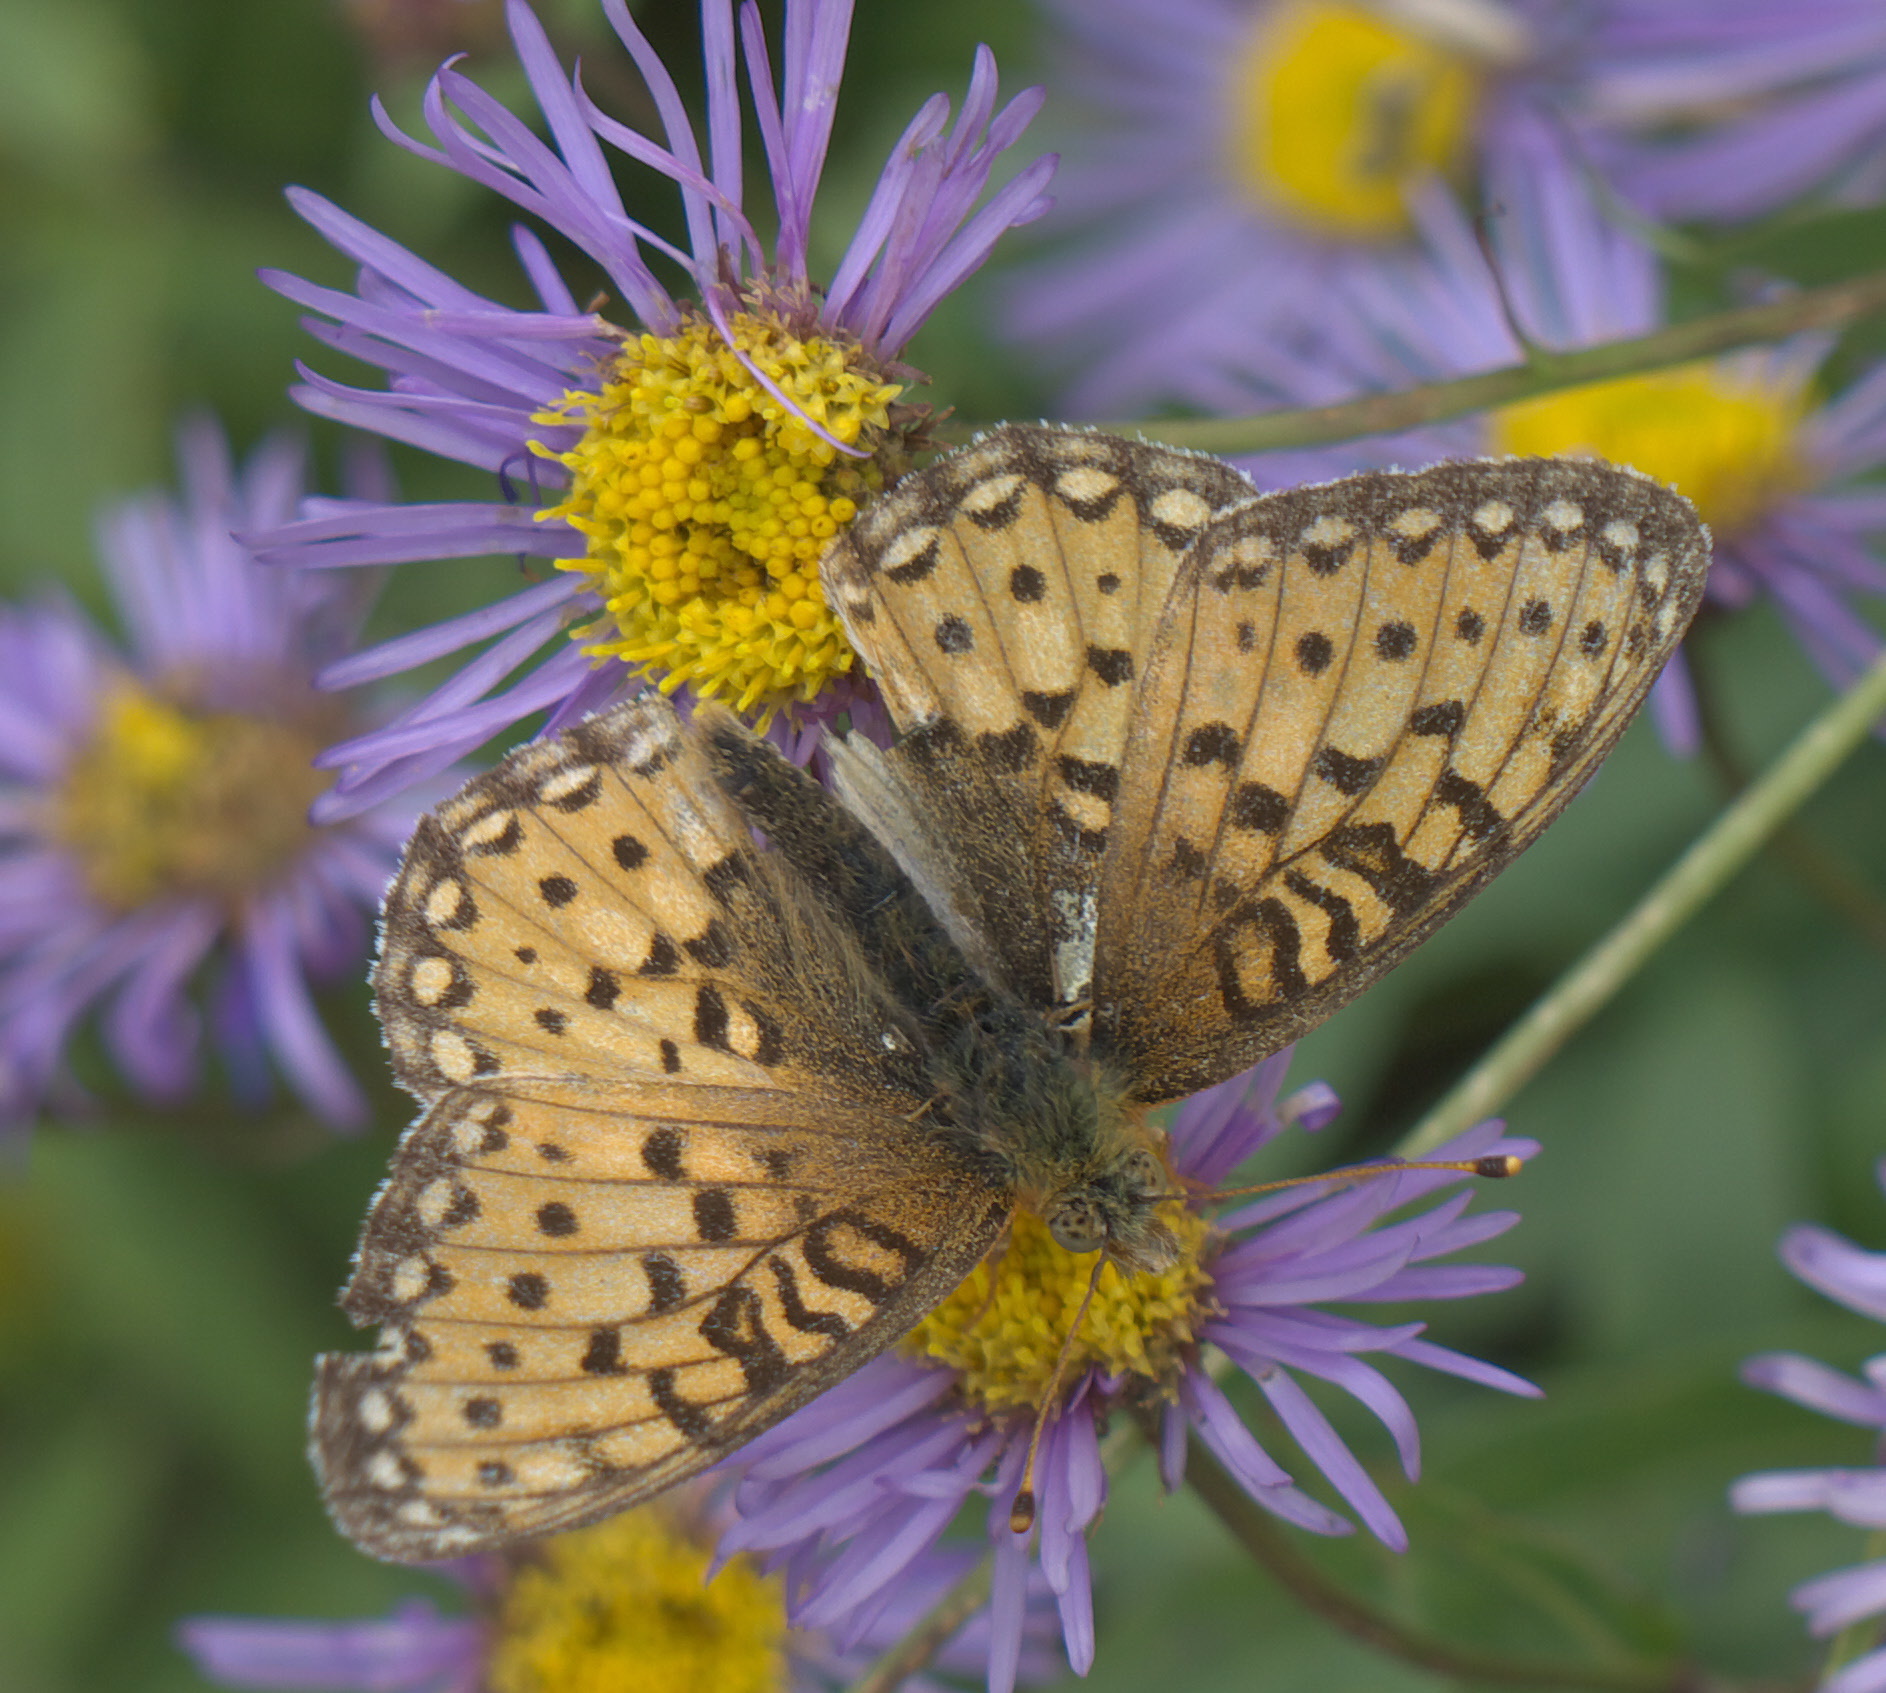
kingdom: Animalia
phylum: Arthropoda
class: Insecta
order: Lepidoptera
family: Nymphalidae
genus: Speyeria
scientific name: Speyeria mormonia
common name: Mormon fritillary
